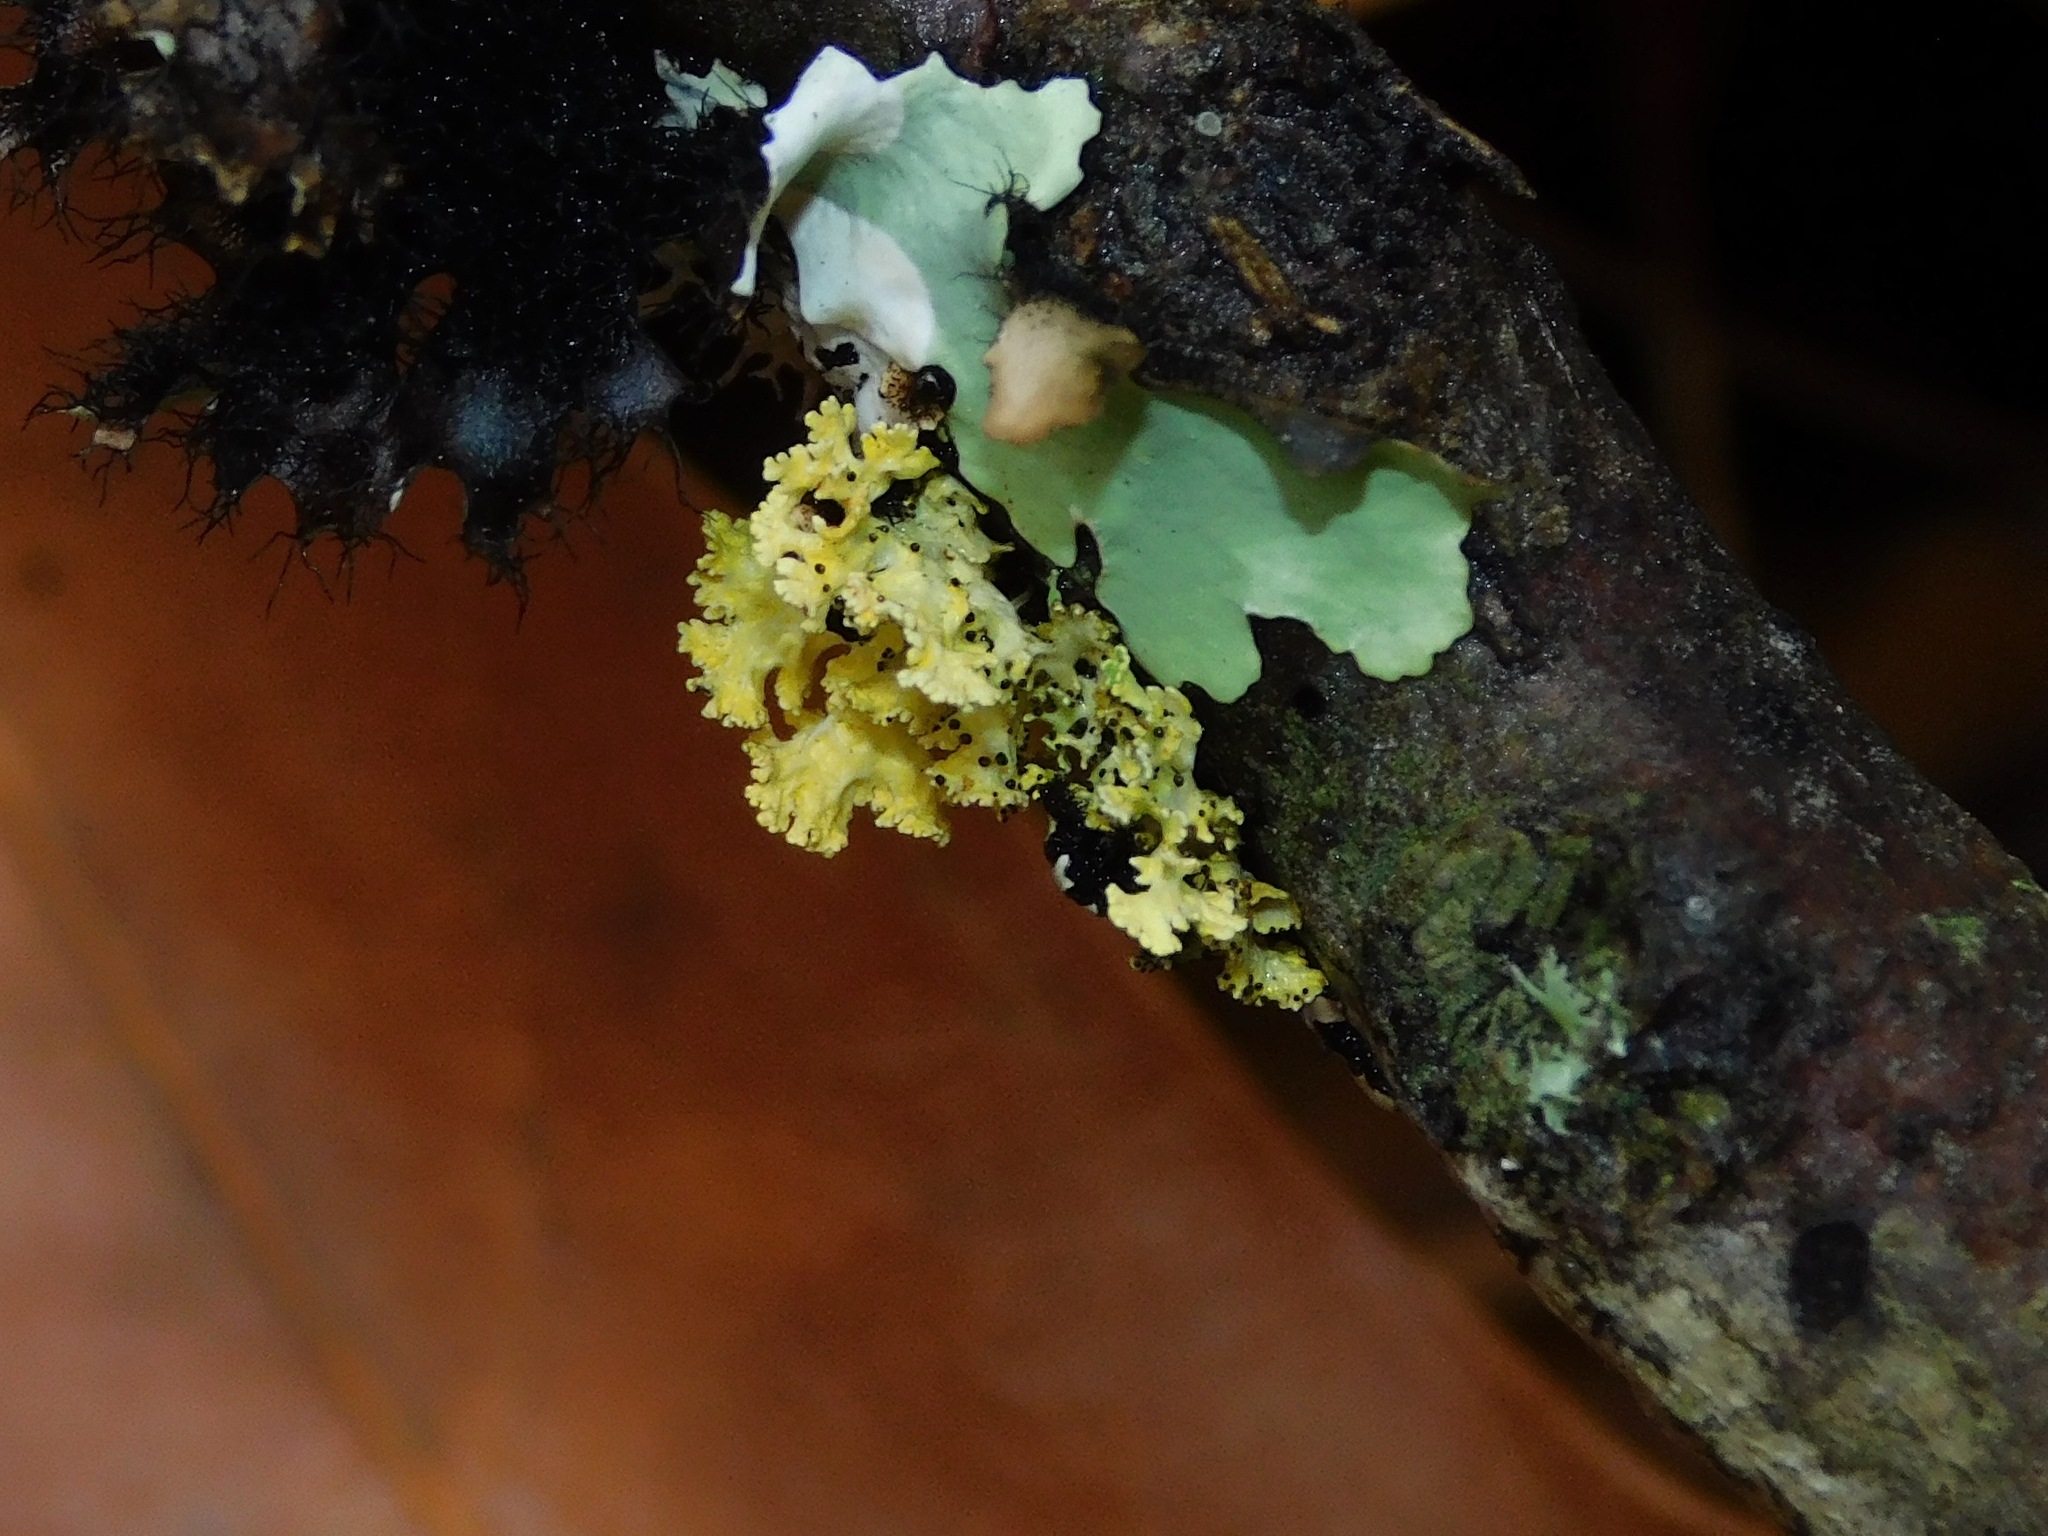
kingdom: Fungi
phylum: Ascomycota
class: Lecanoromycetes
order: Lecanorales
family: Parmeliaceae
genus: Vulpicida
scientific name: Vulpicida viridis
